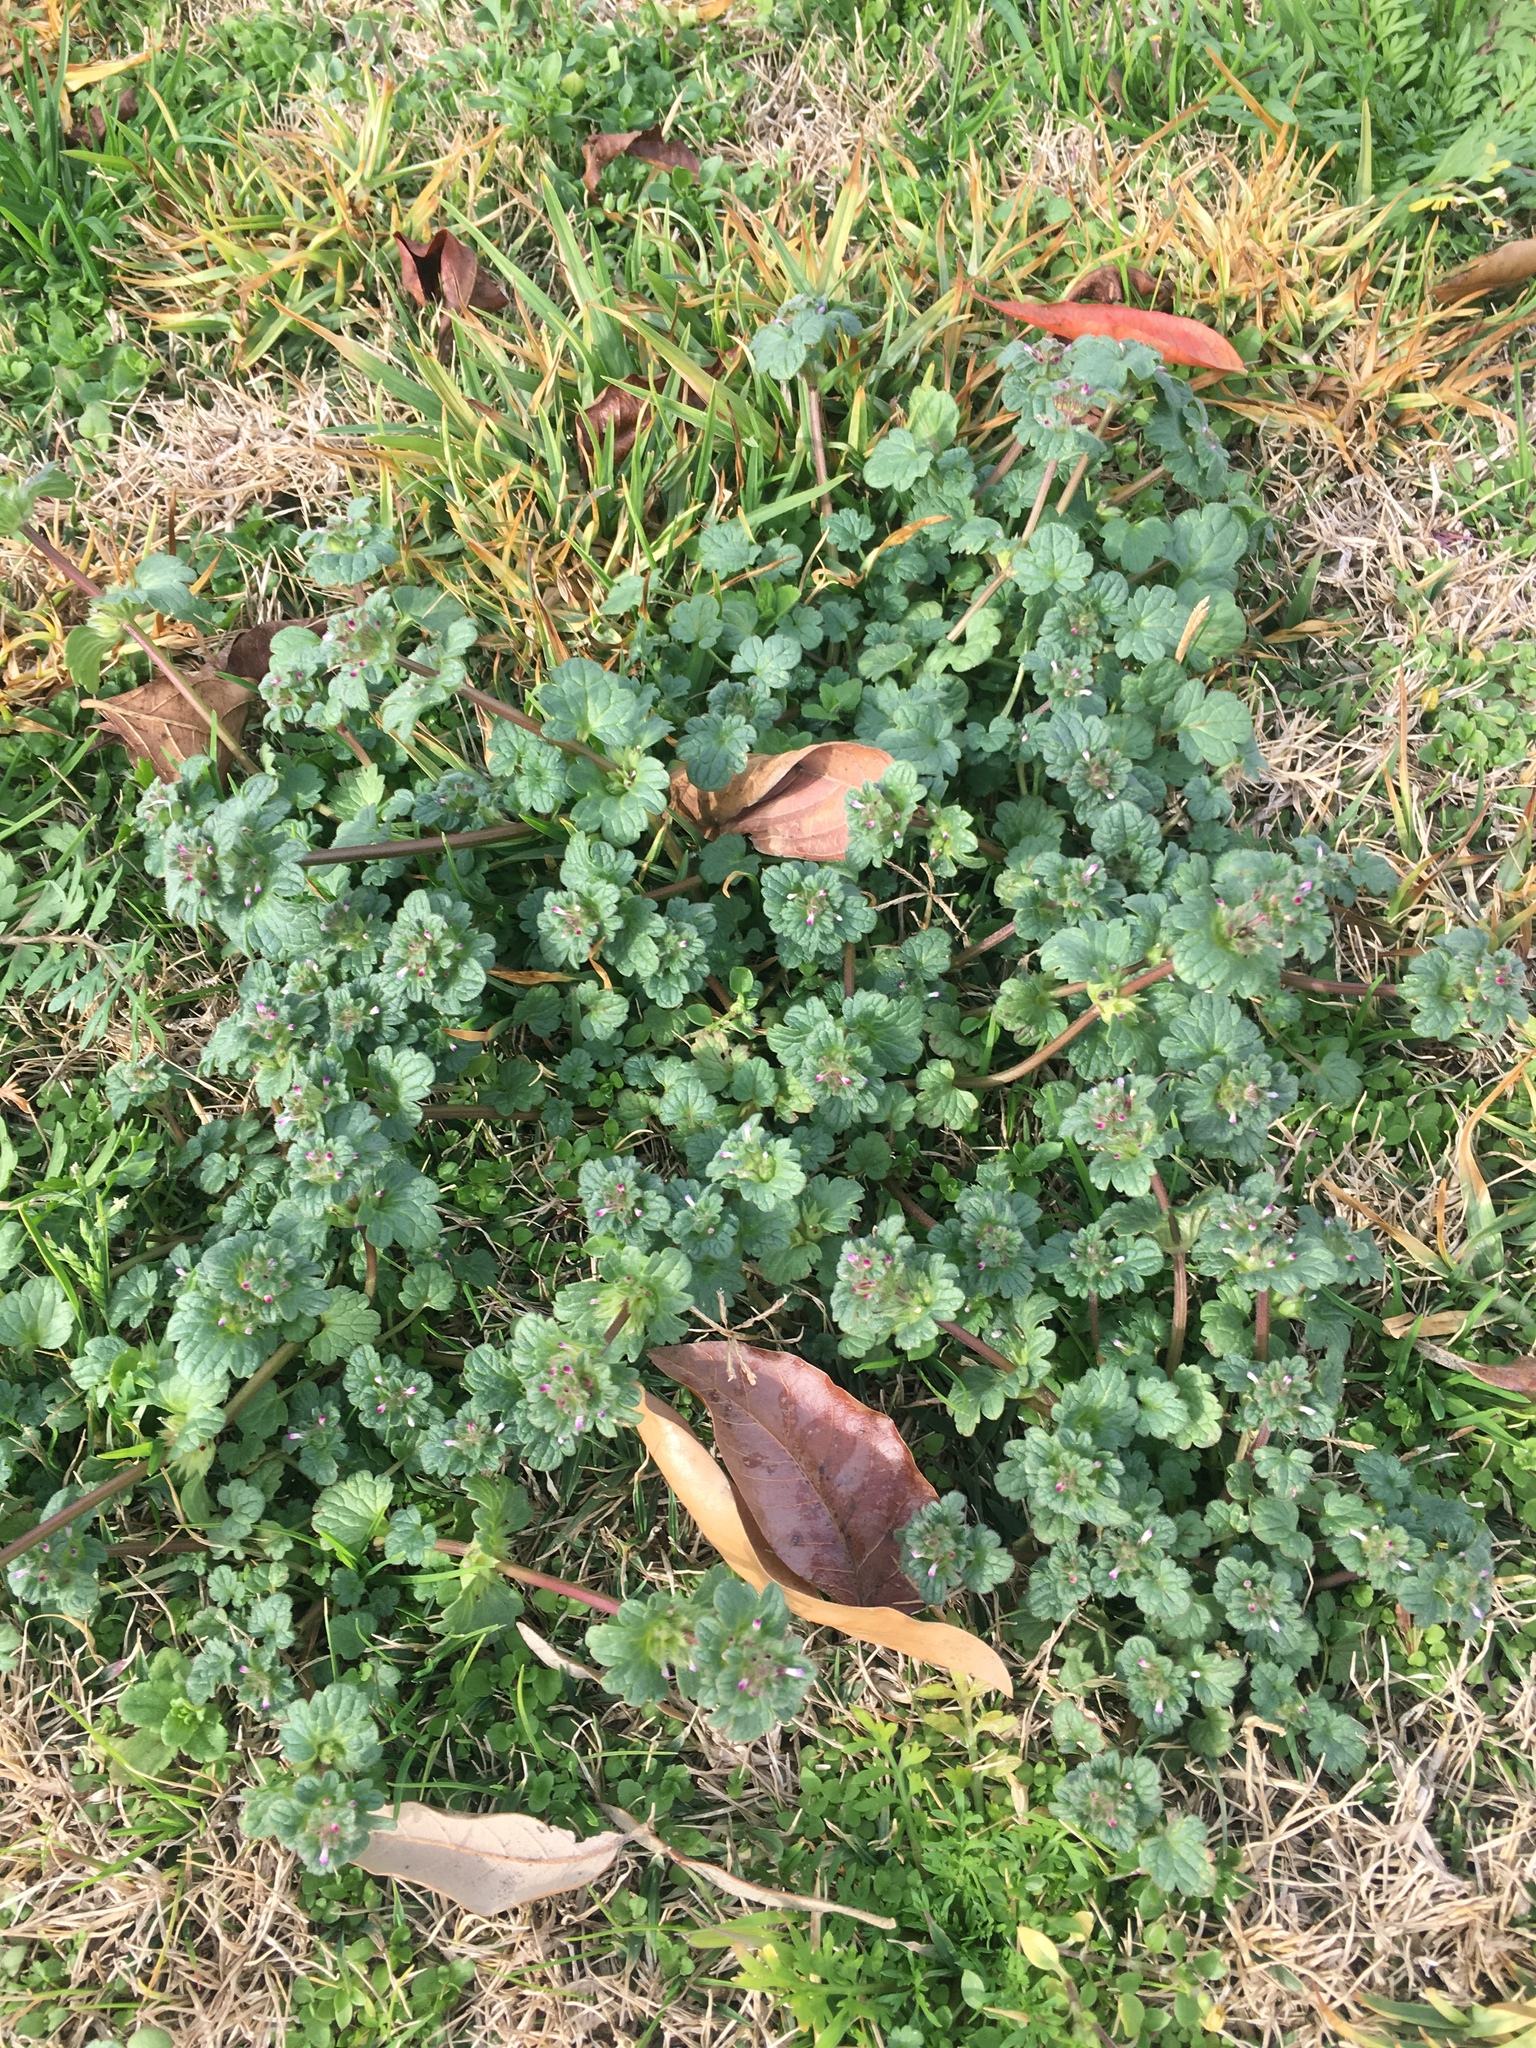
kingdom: Plantae
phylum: Tracheophyta
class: Magnoliopsida
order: Lamiales
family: Lamiaceae
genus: Lamium
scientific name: Lamium amplexicaule
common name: Henbit dead-nettle
